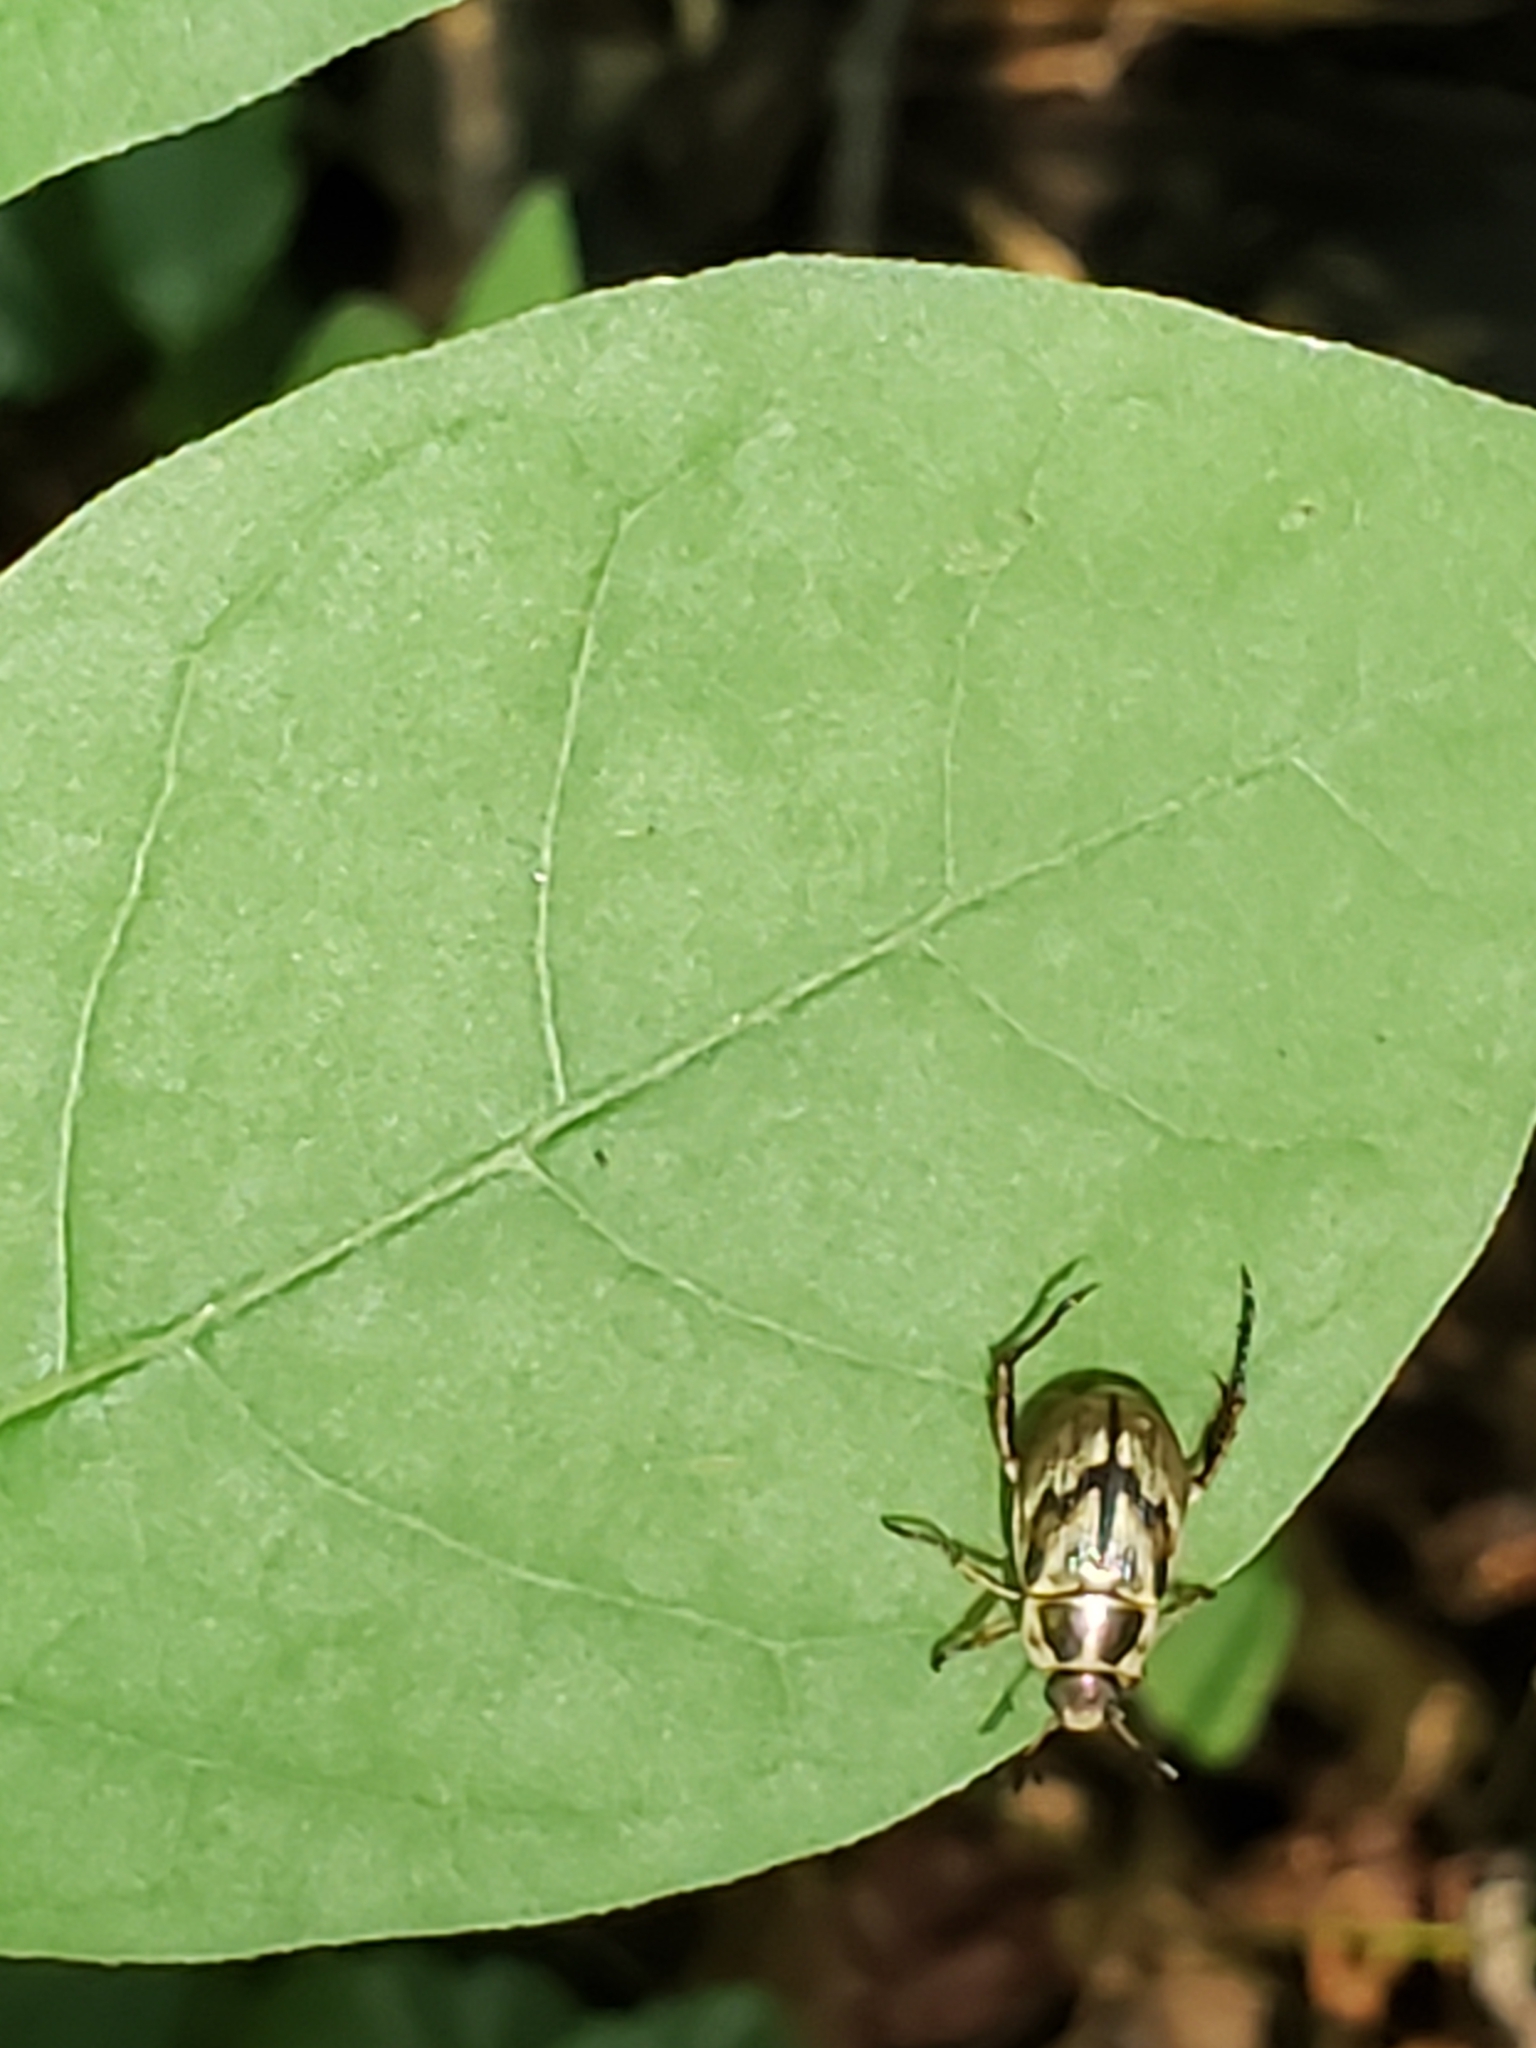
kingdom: Animalia
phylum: Arthropoda
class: Insecta
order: Coleoptera
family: Scarabaeidae
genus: Exomala
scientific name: Exomala orientalis
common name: Oriental beetle
